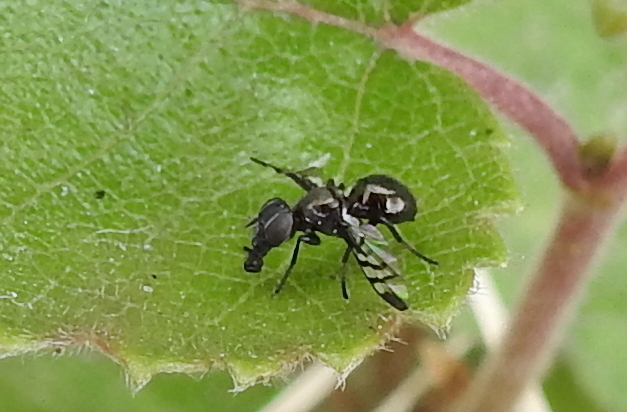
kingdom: Animalia
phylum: Arthropoda
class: Insecta
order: Diptera
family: Platystomatidae
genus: Rivellia
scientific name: Rivellia syngenesiae
